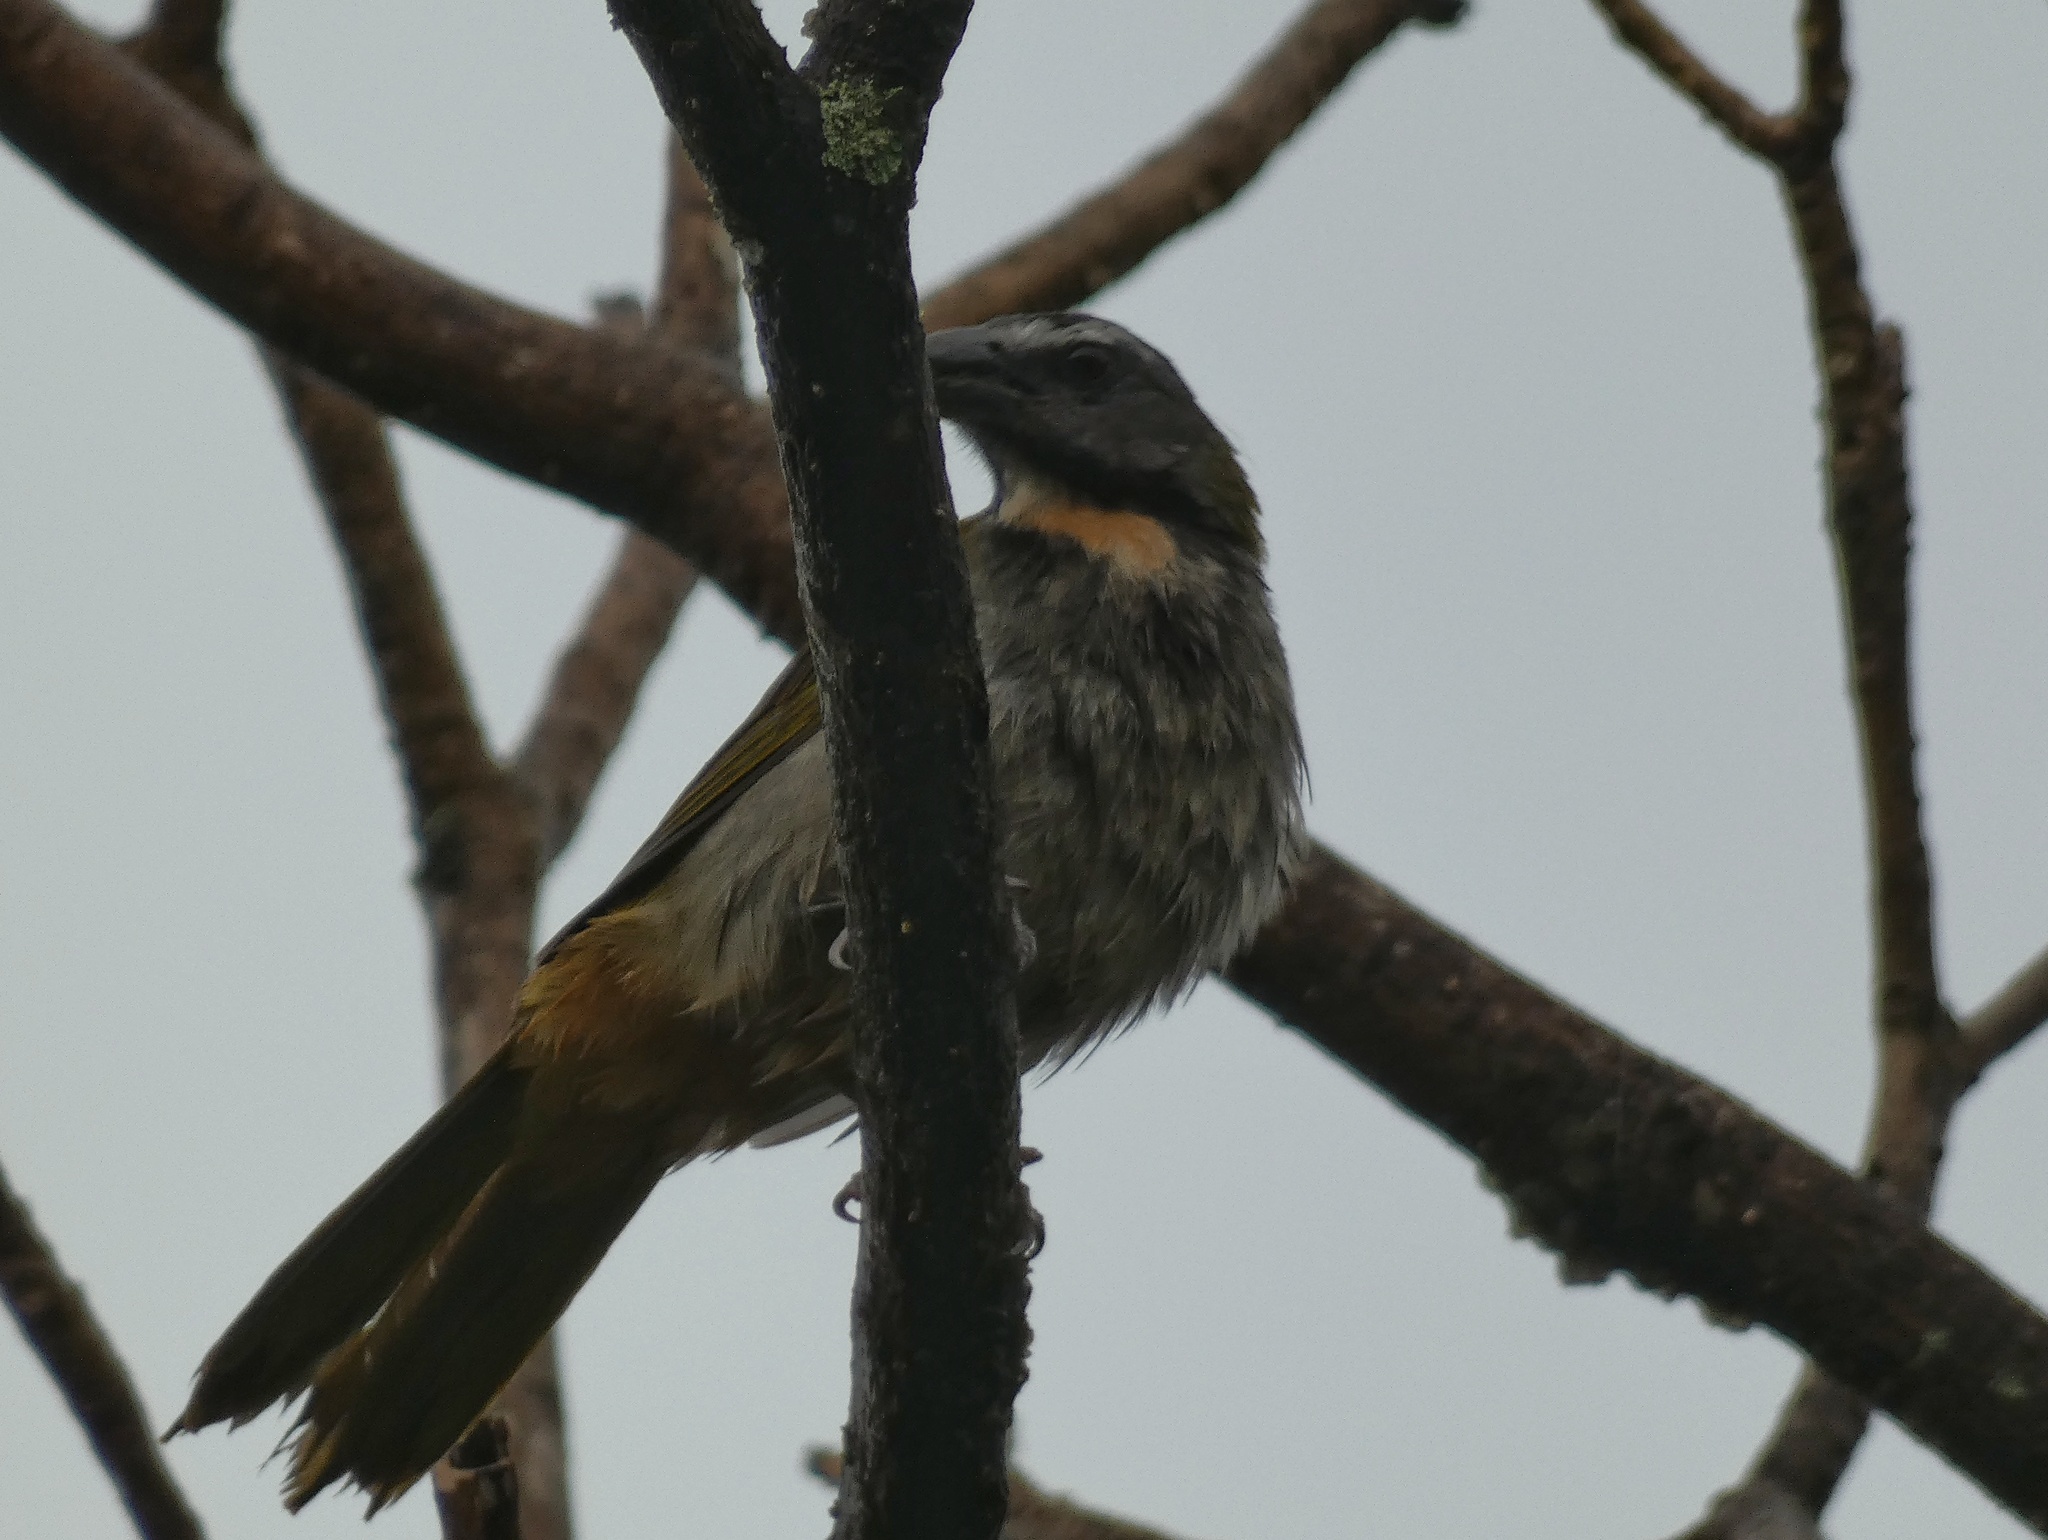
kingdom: Animalia
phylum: Chordata
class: Aves
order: Passeriformes
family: Thraupidae
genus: Saltator
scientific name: Saltator maximus
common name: Buff-throated saltator
